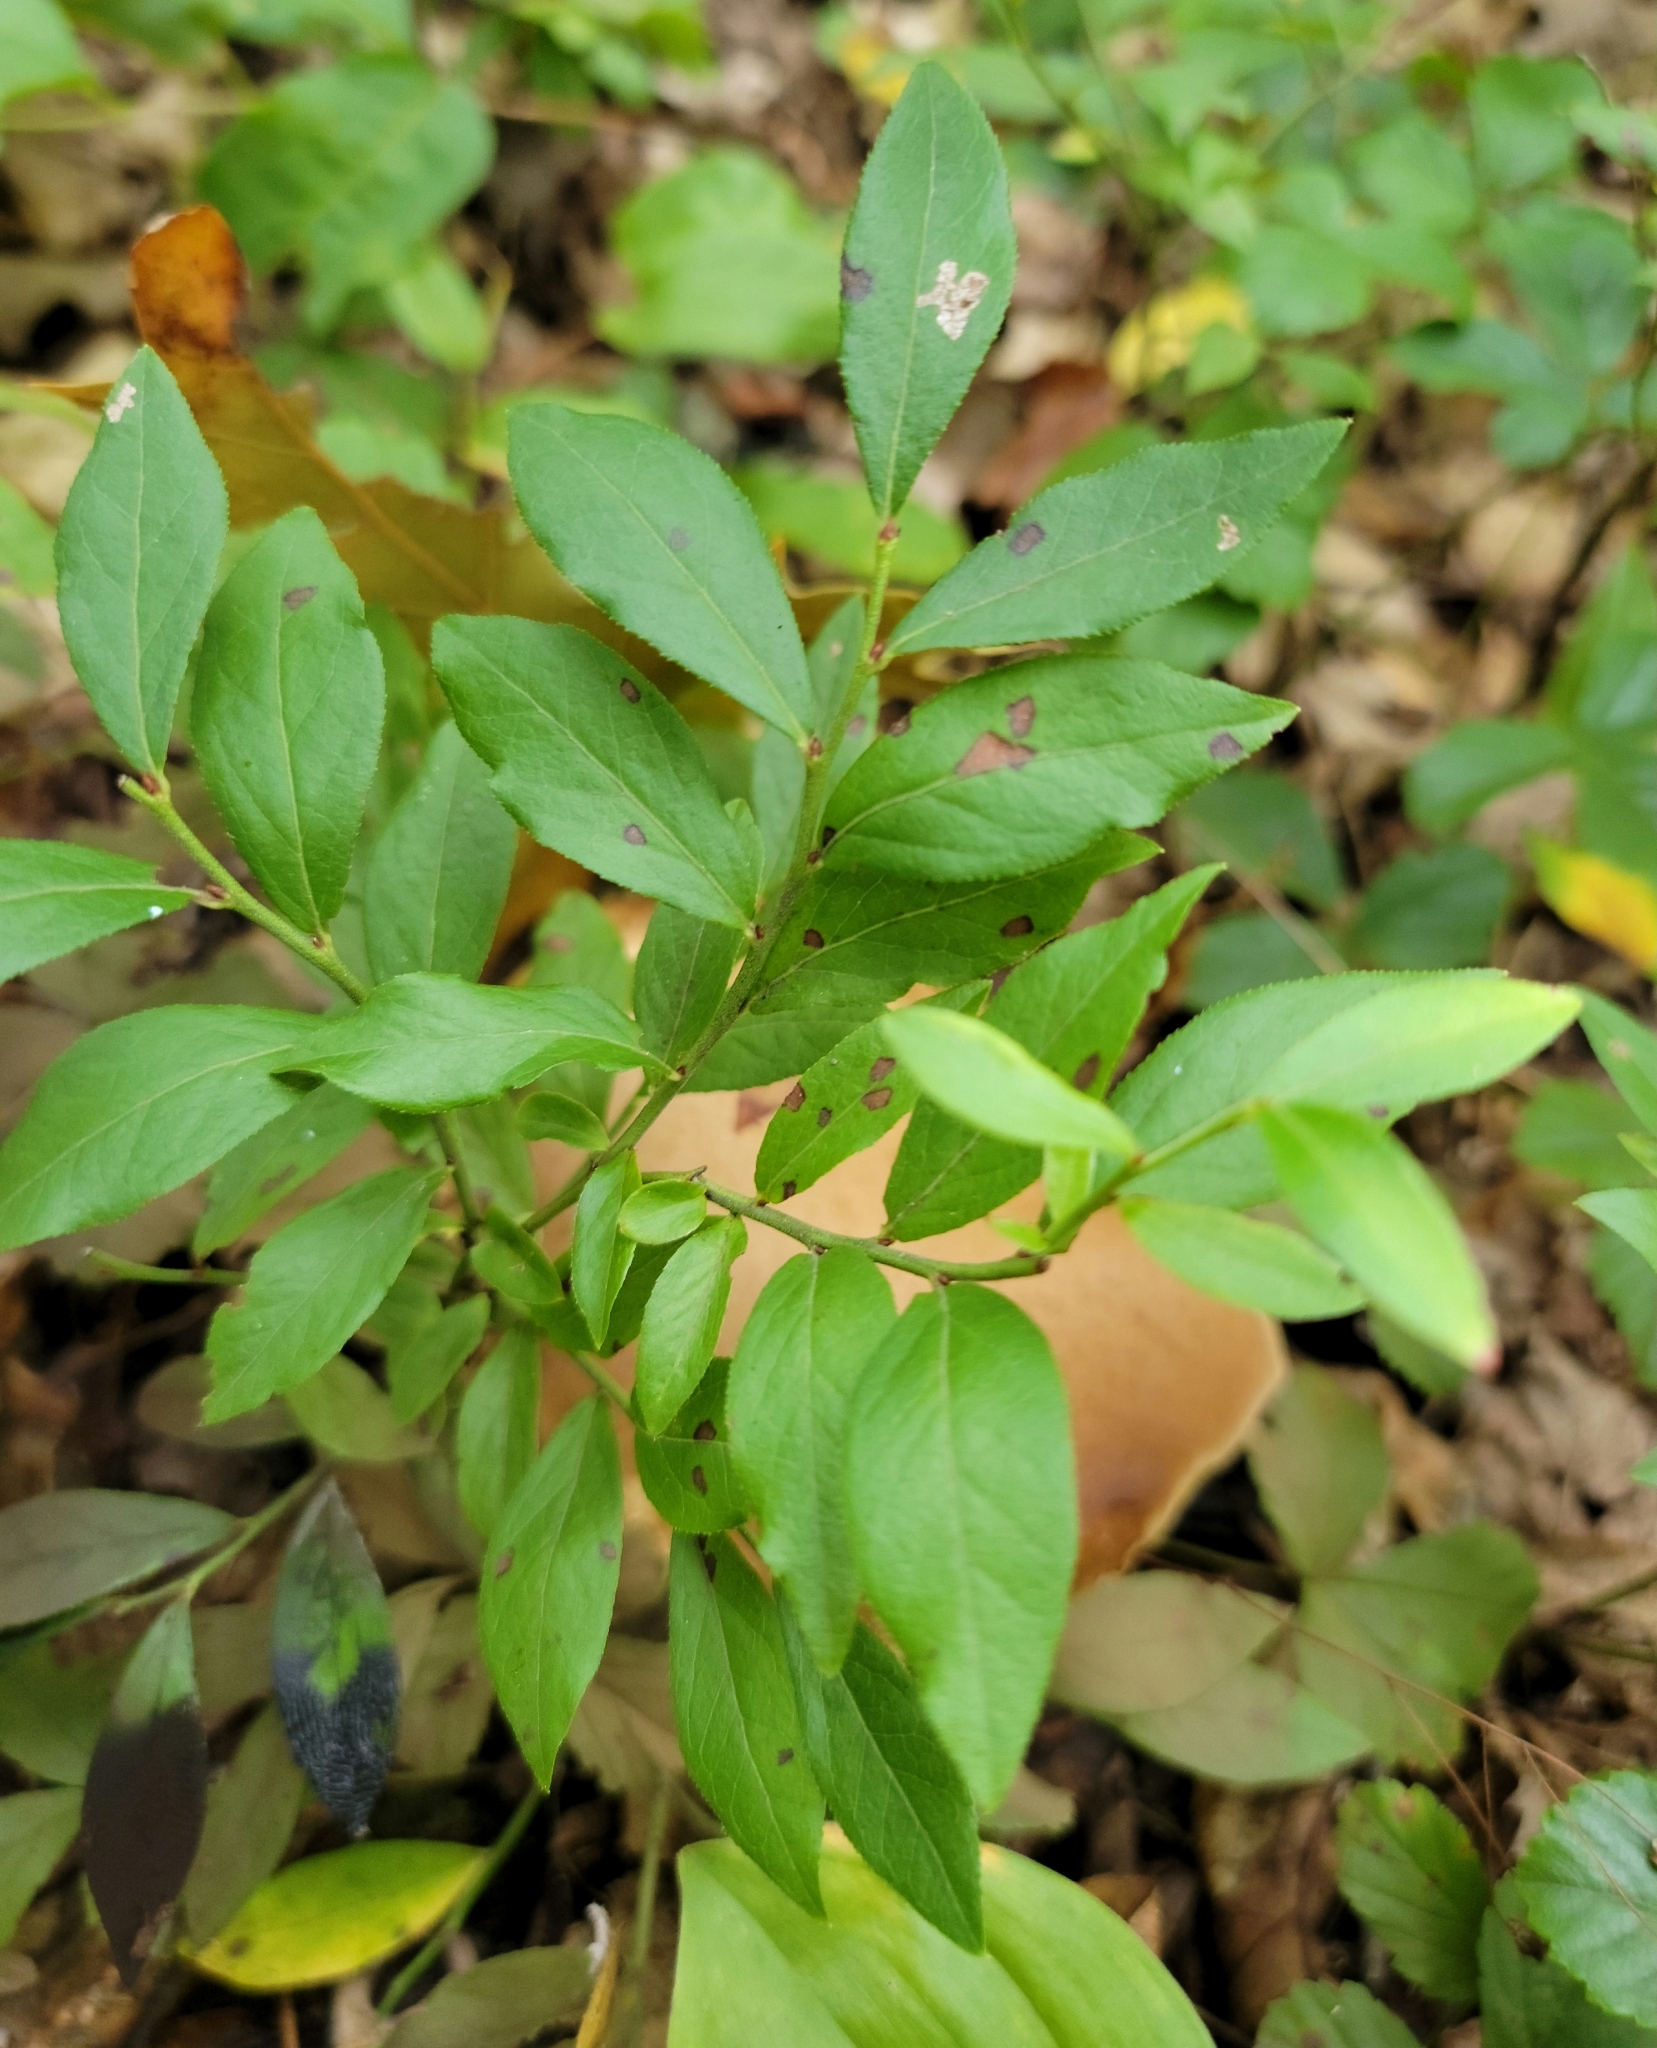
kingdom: Plantae
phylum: Tracheophyta
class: Magnoliopsida
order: Ericales
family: Ericaceae
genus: Vaccinium
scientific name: Vaccinium angustifolium
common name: Early lowbush blueberry
